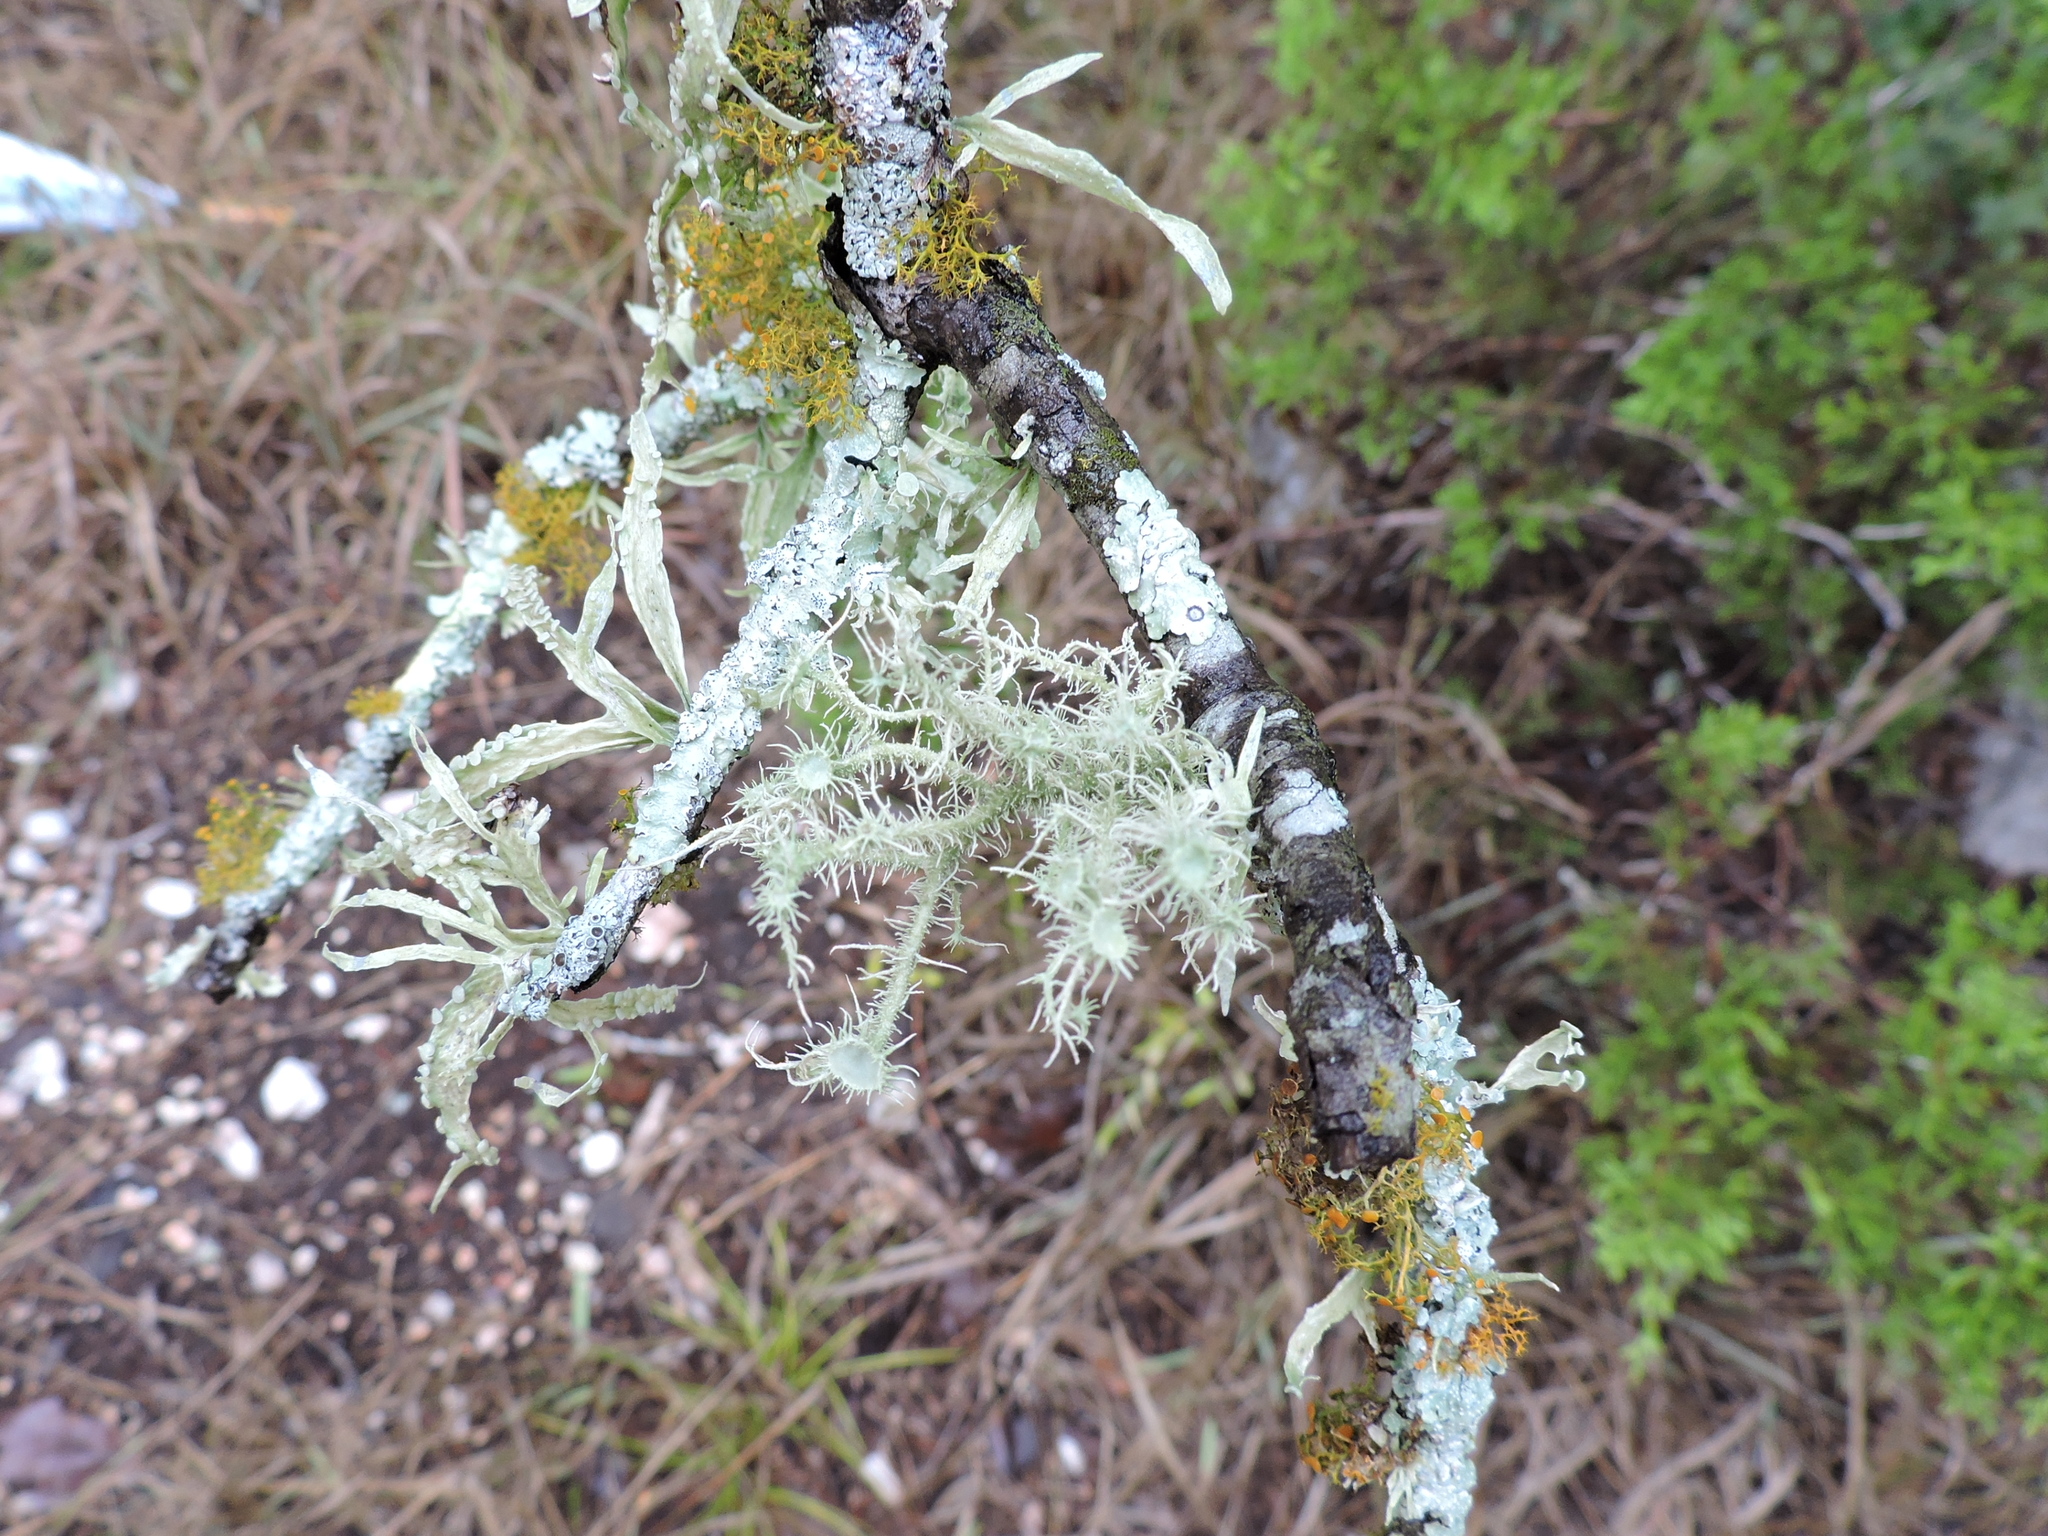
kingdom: Fungi
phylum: Ascomycota
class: Lecanoromycetes
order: Lecanorales
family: Parmeliaceae
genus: Usnea
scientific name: Usnea strigosa
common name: Bushy beard lichen
